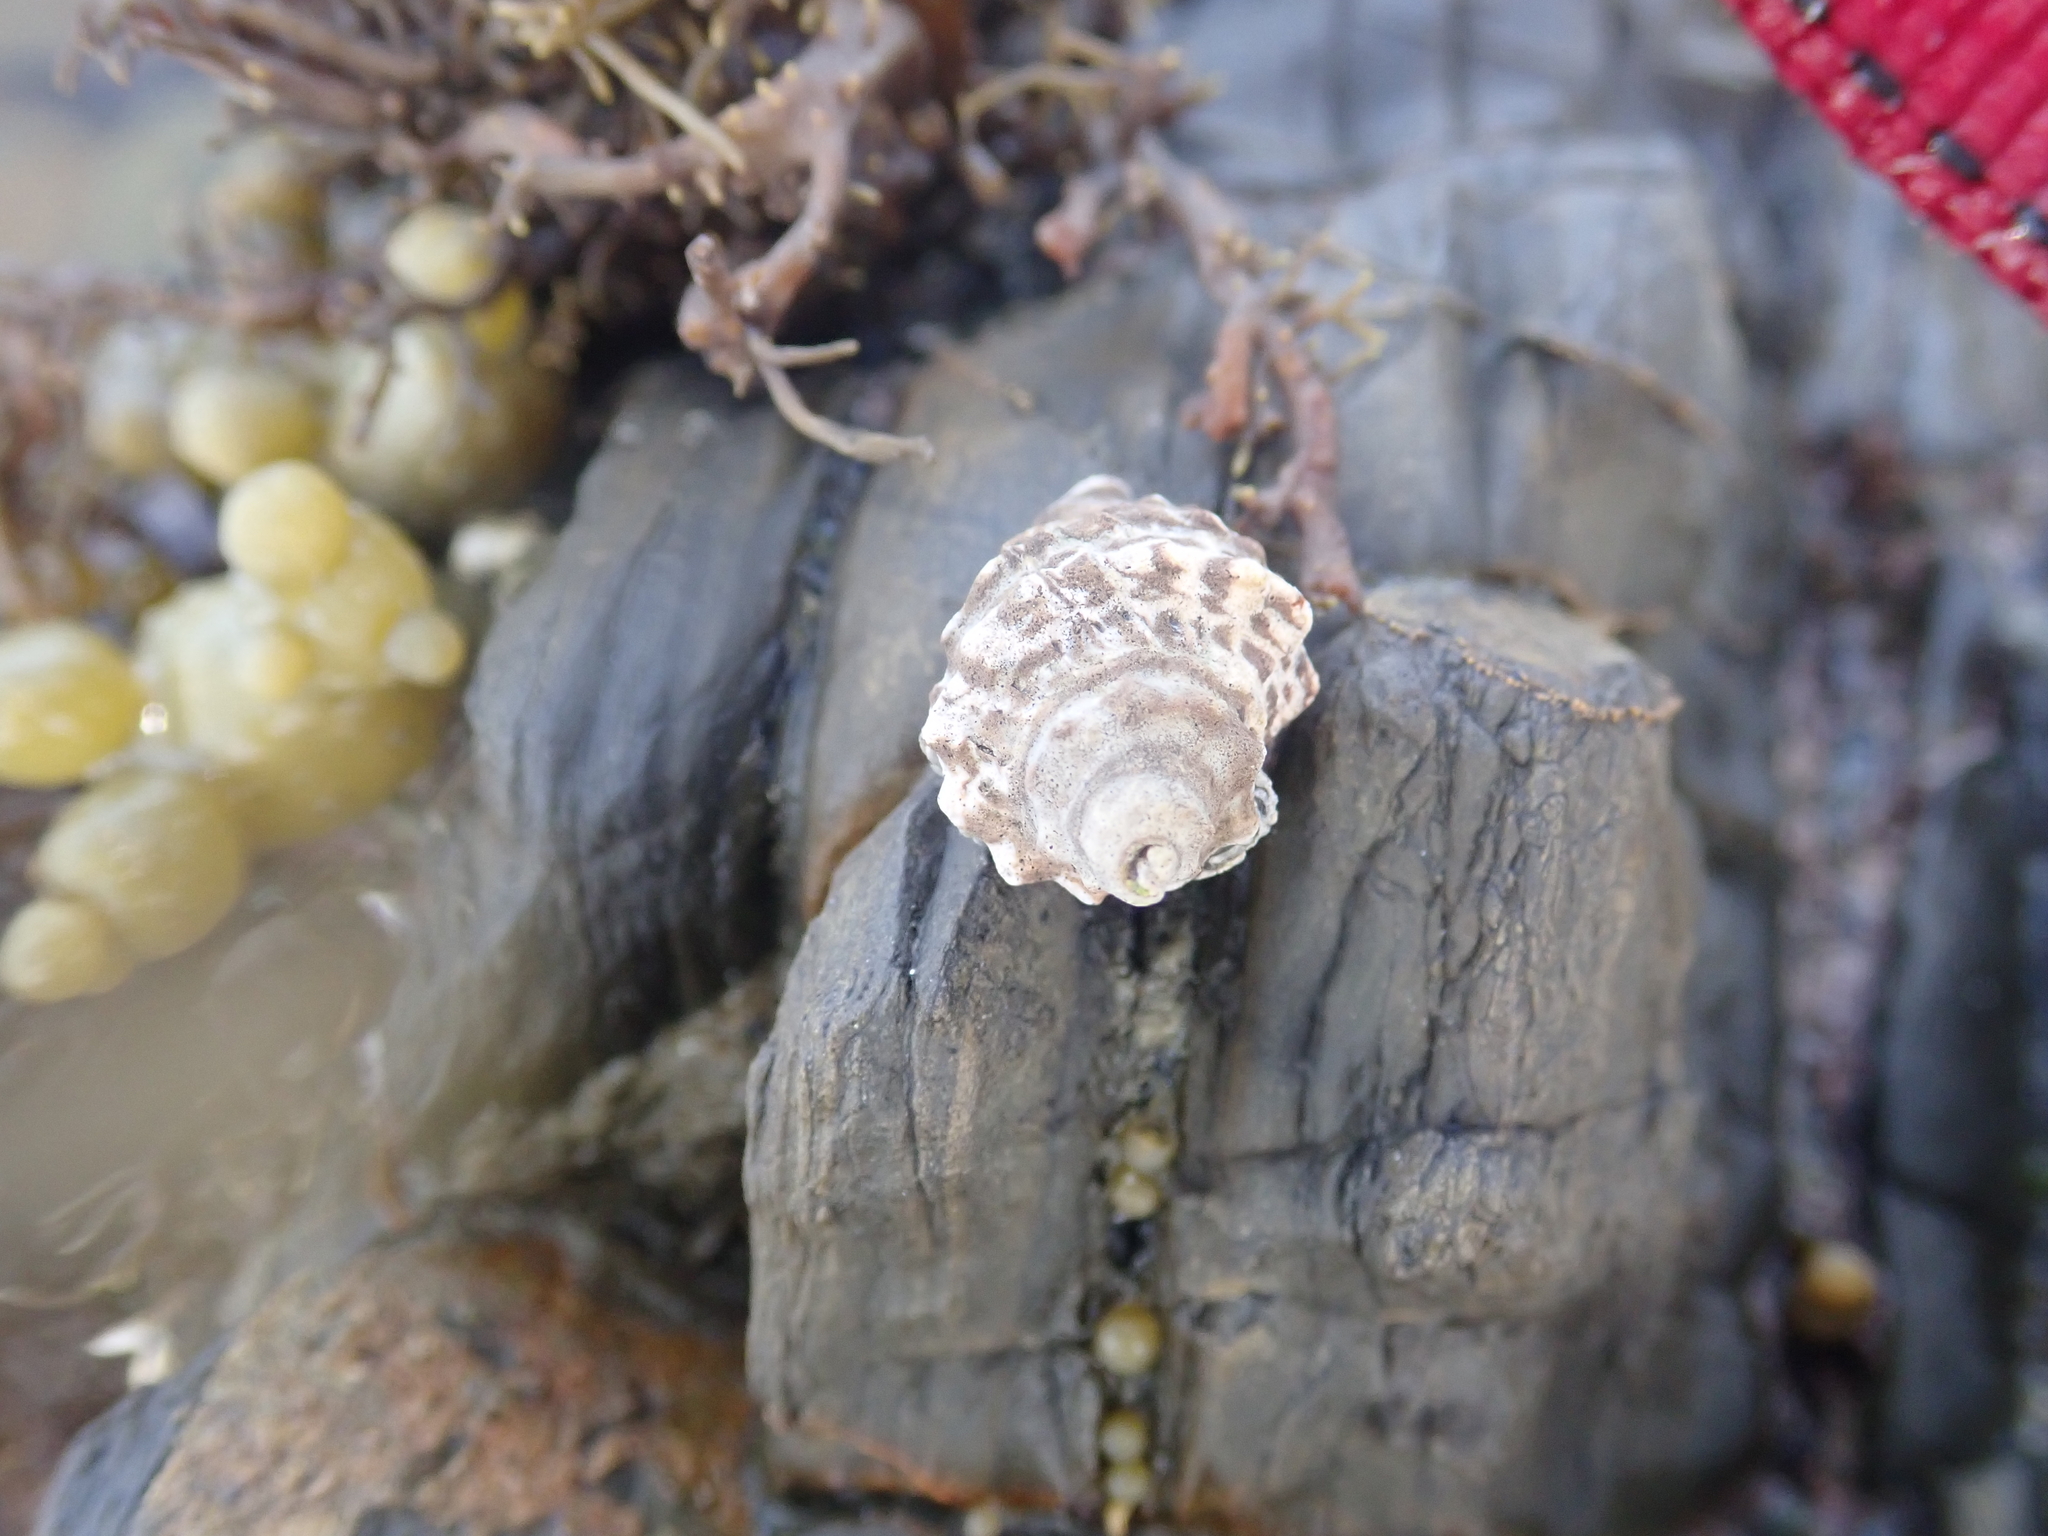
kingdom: Animalia
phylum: Mollusca
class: Gastropoda
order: Neogastropoda
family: Muricidae
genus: Haustrum
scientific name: Haustrum scobina
